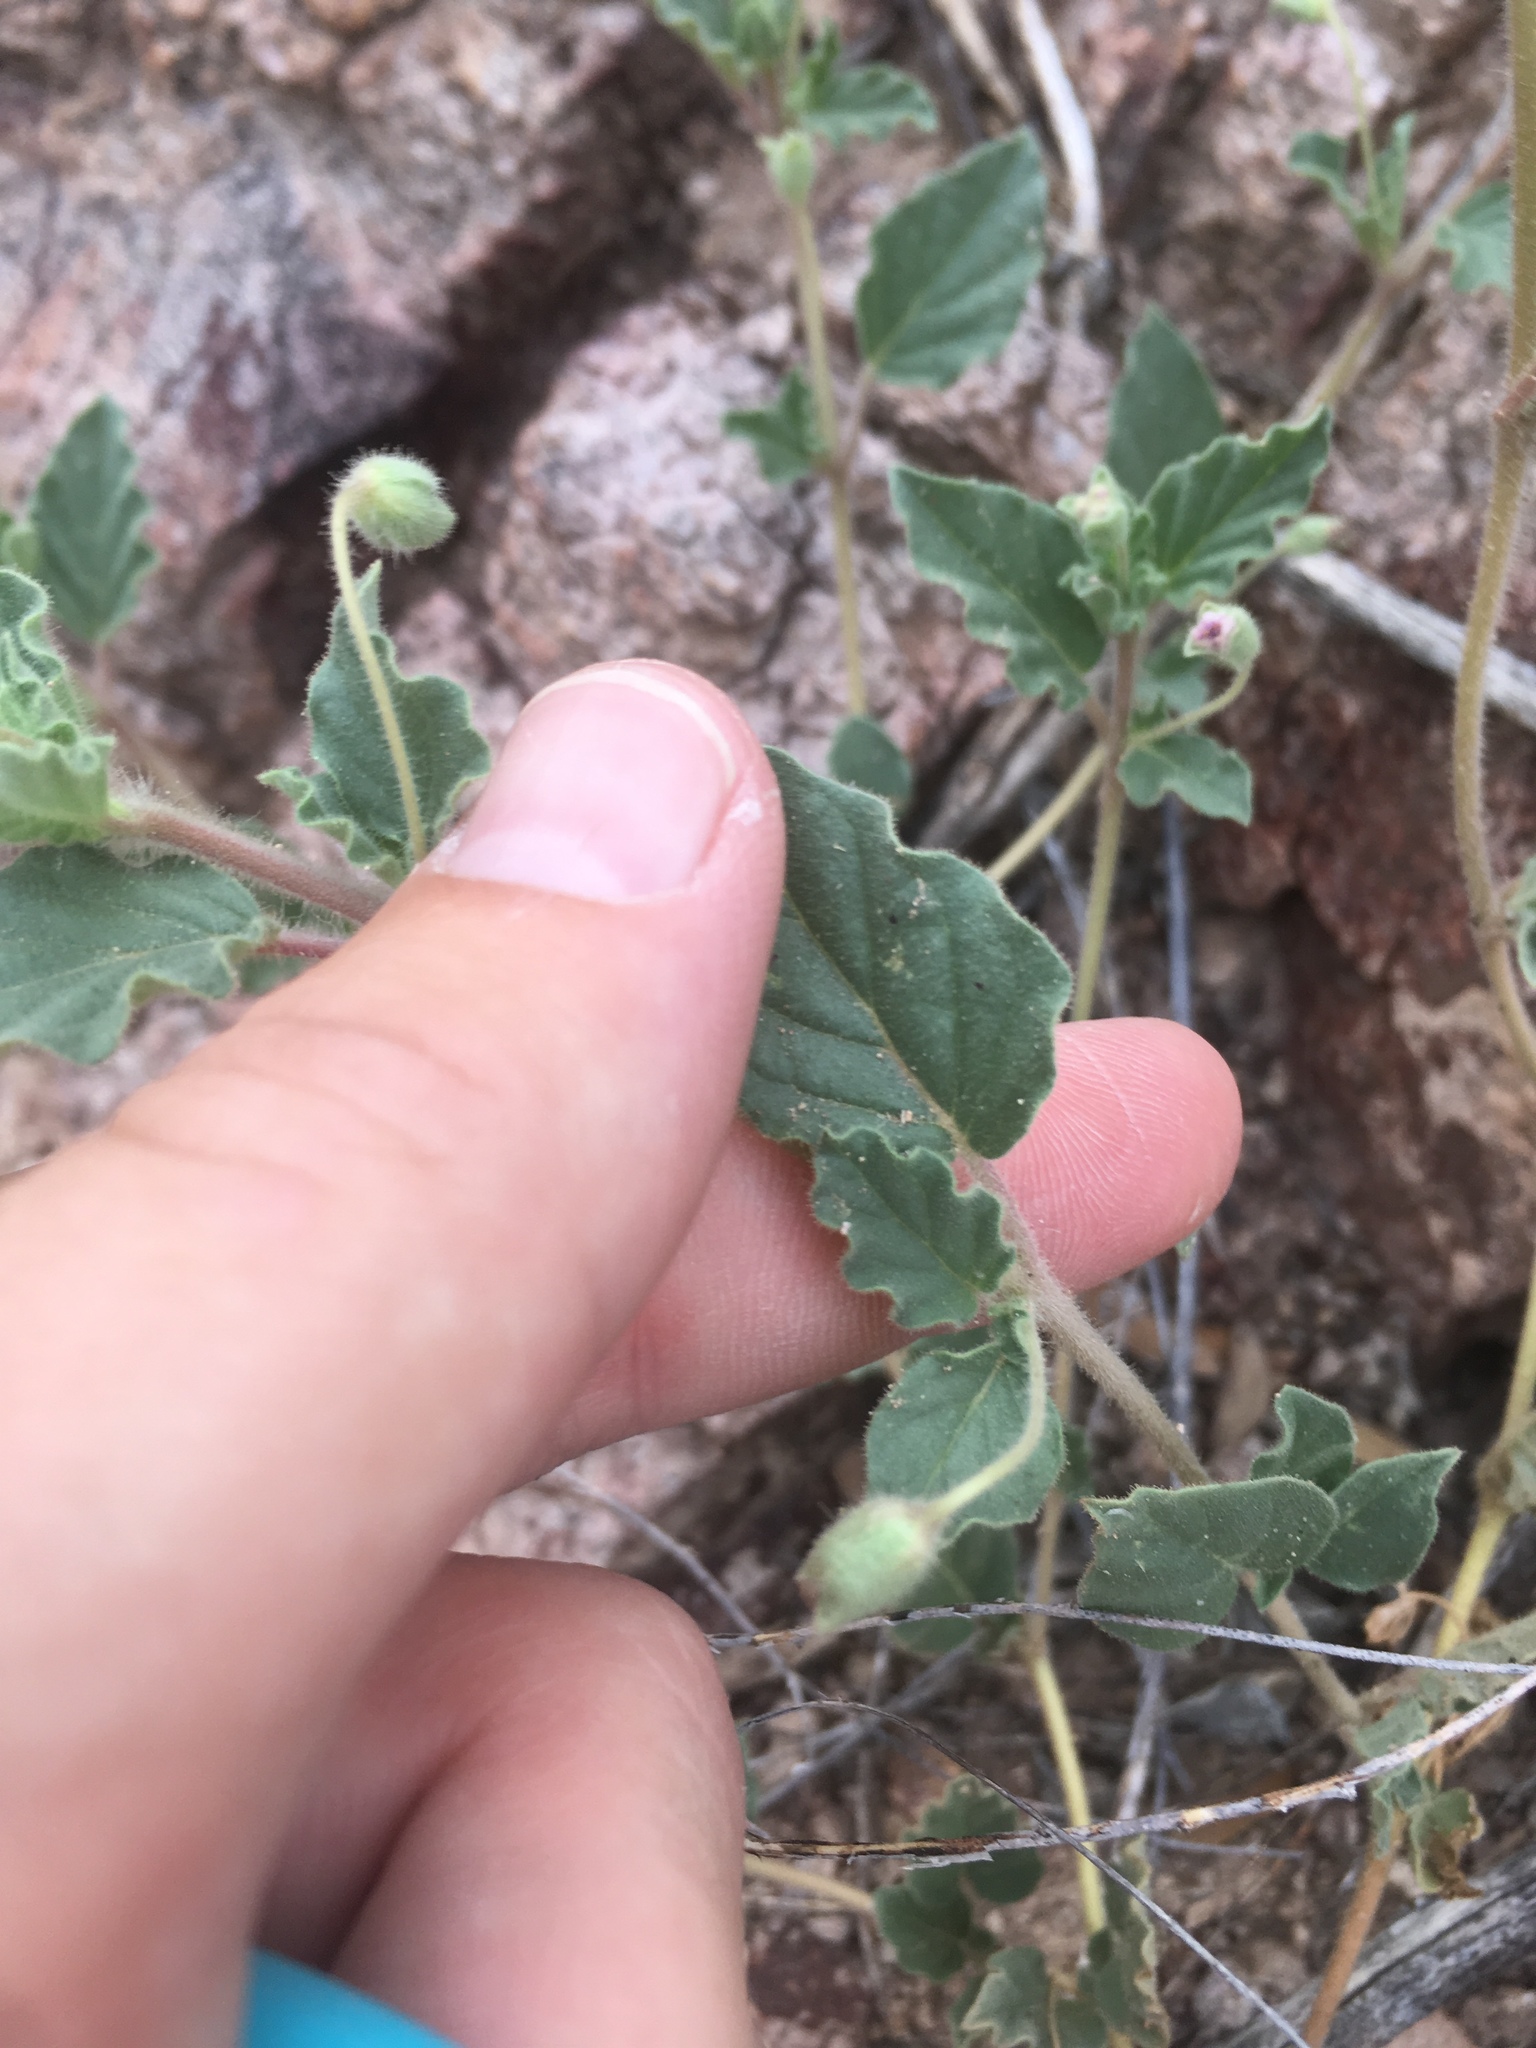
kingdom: Plantae
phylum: Tracheophyta
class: Magnoliopsida
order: Caryophyllales
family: Nyctaginaceae
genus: Allionia
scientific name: Allionia incarnata
